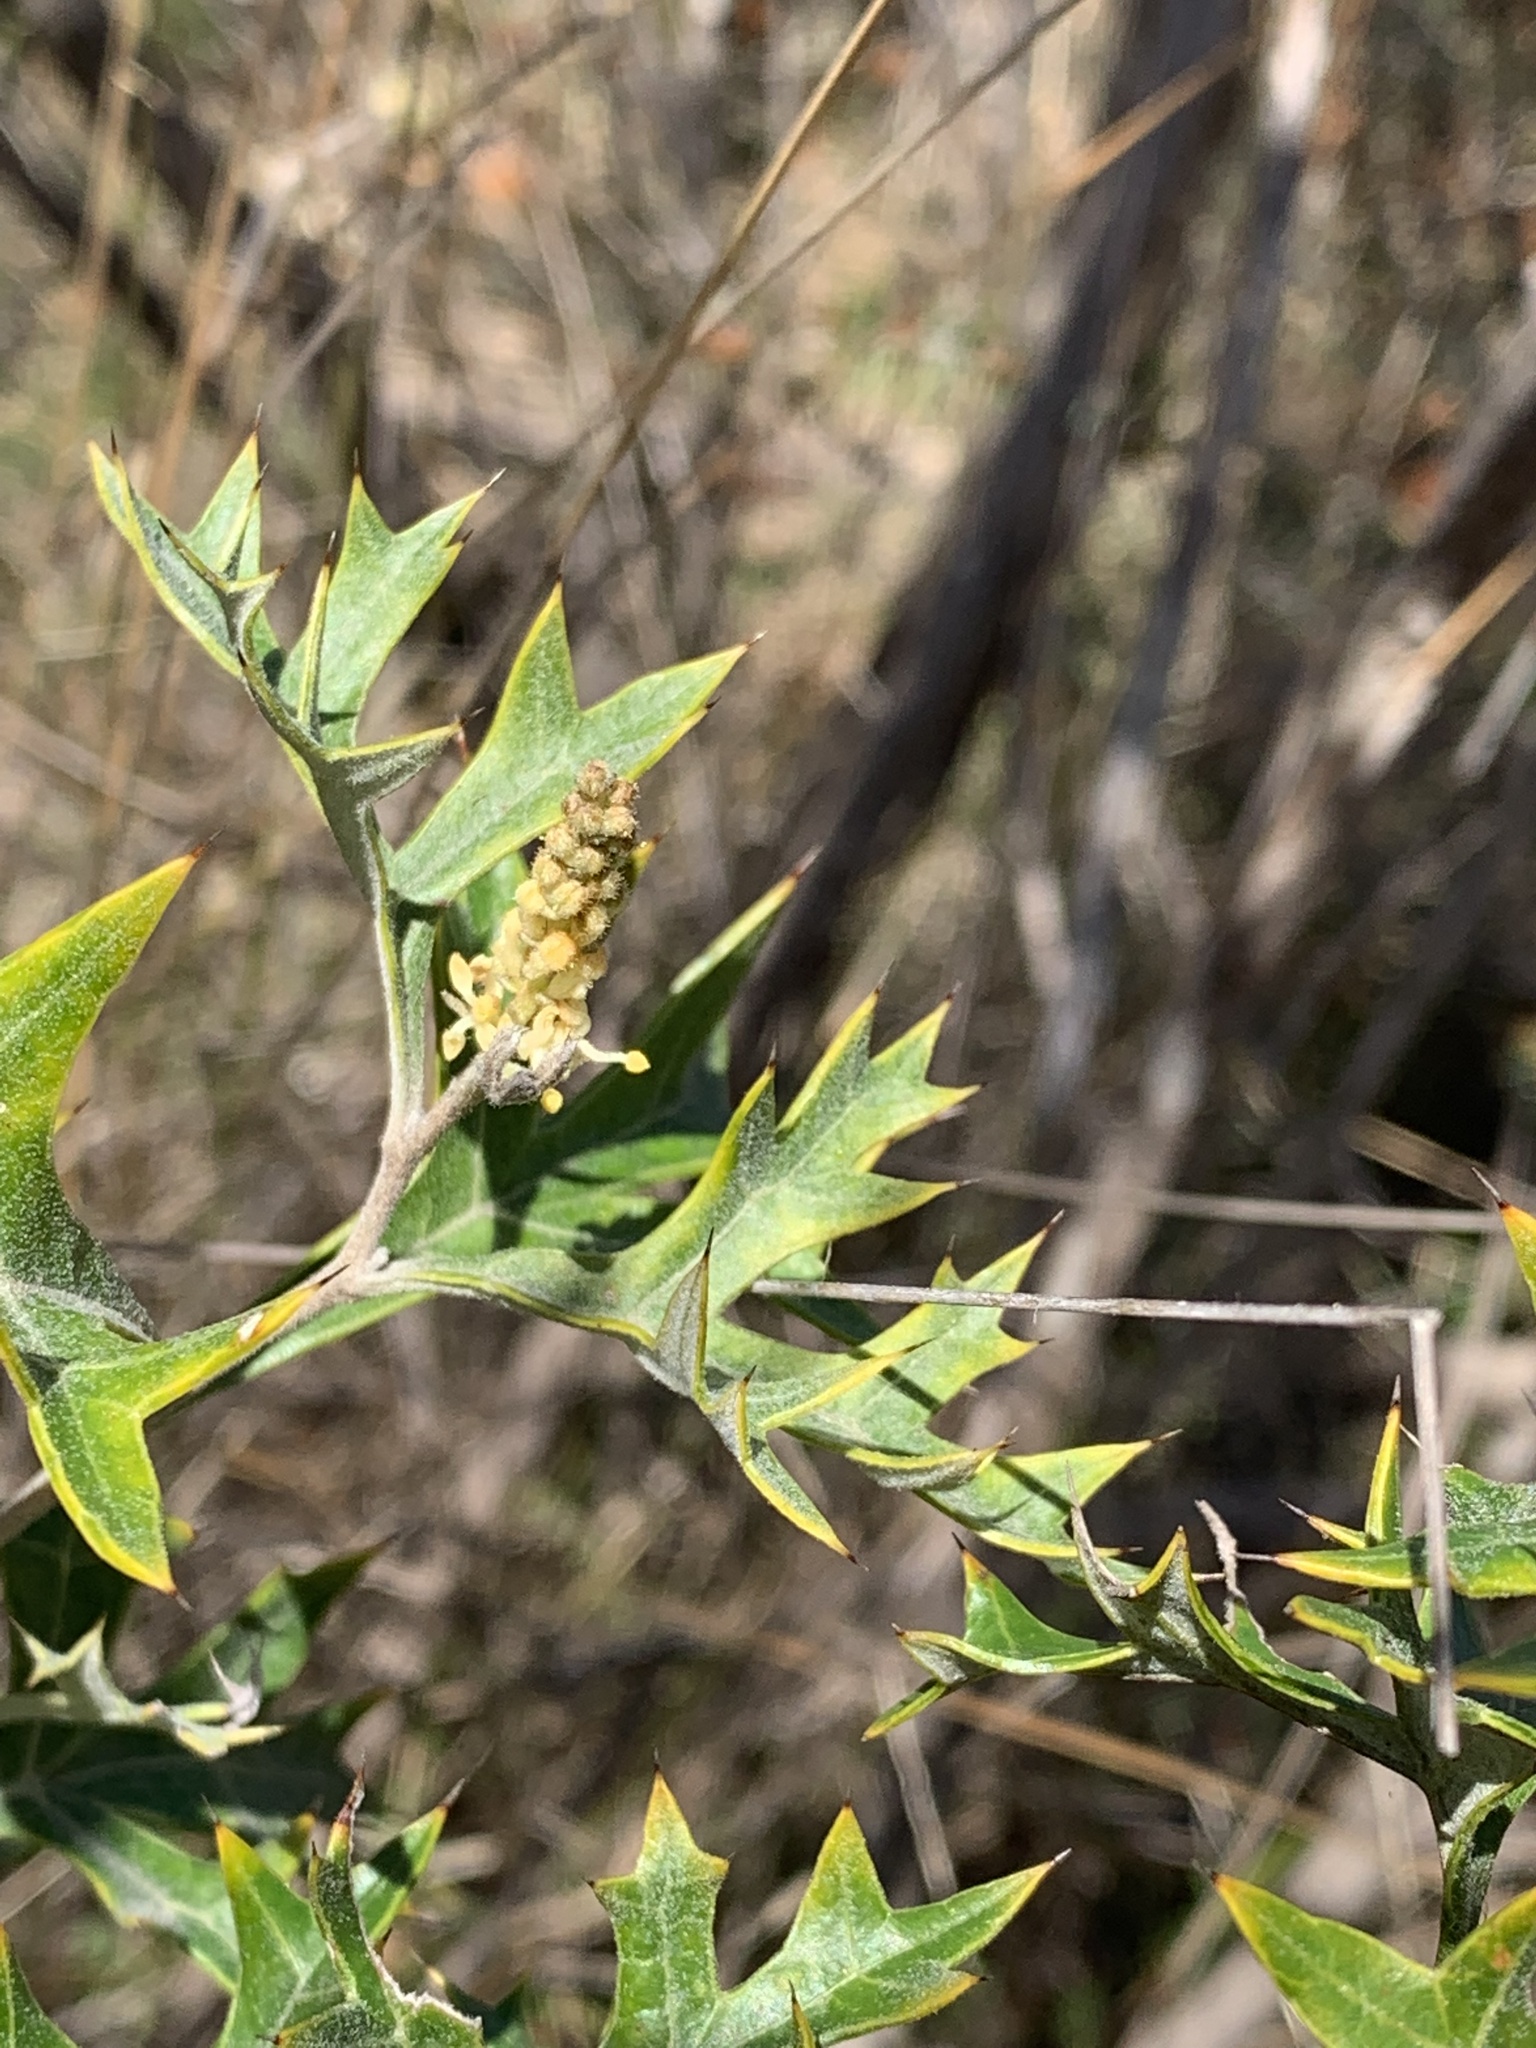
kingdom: Plantae
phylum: Tracheophyta
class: Magnoliopsida
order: Proteales
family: Proteaceae
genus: Grevillea
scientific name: Grevillea ramosissima
